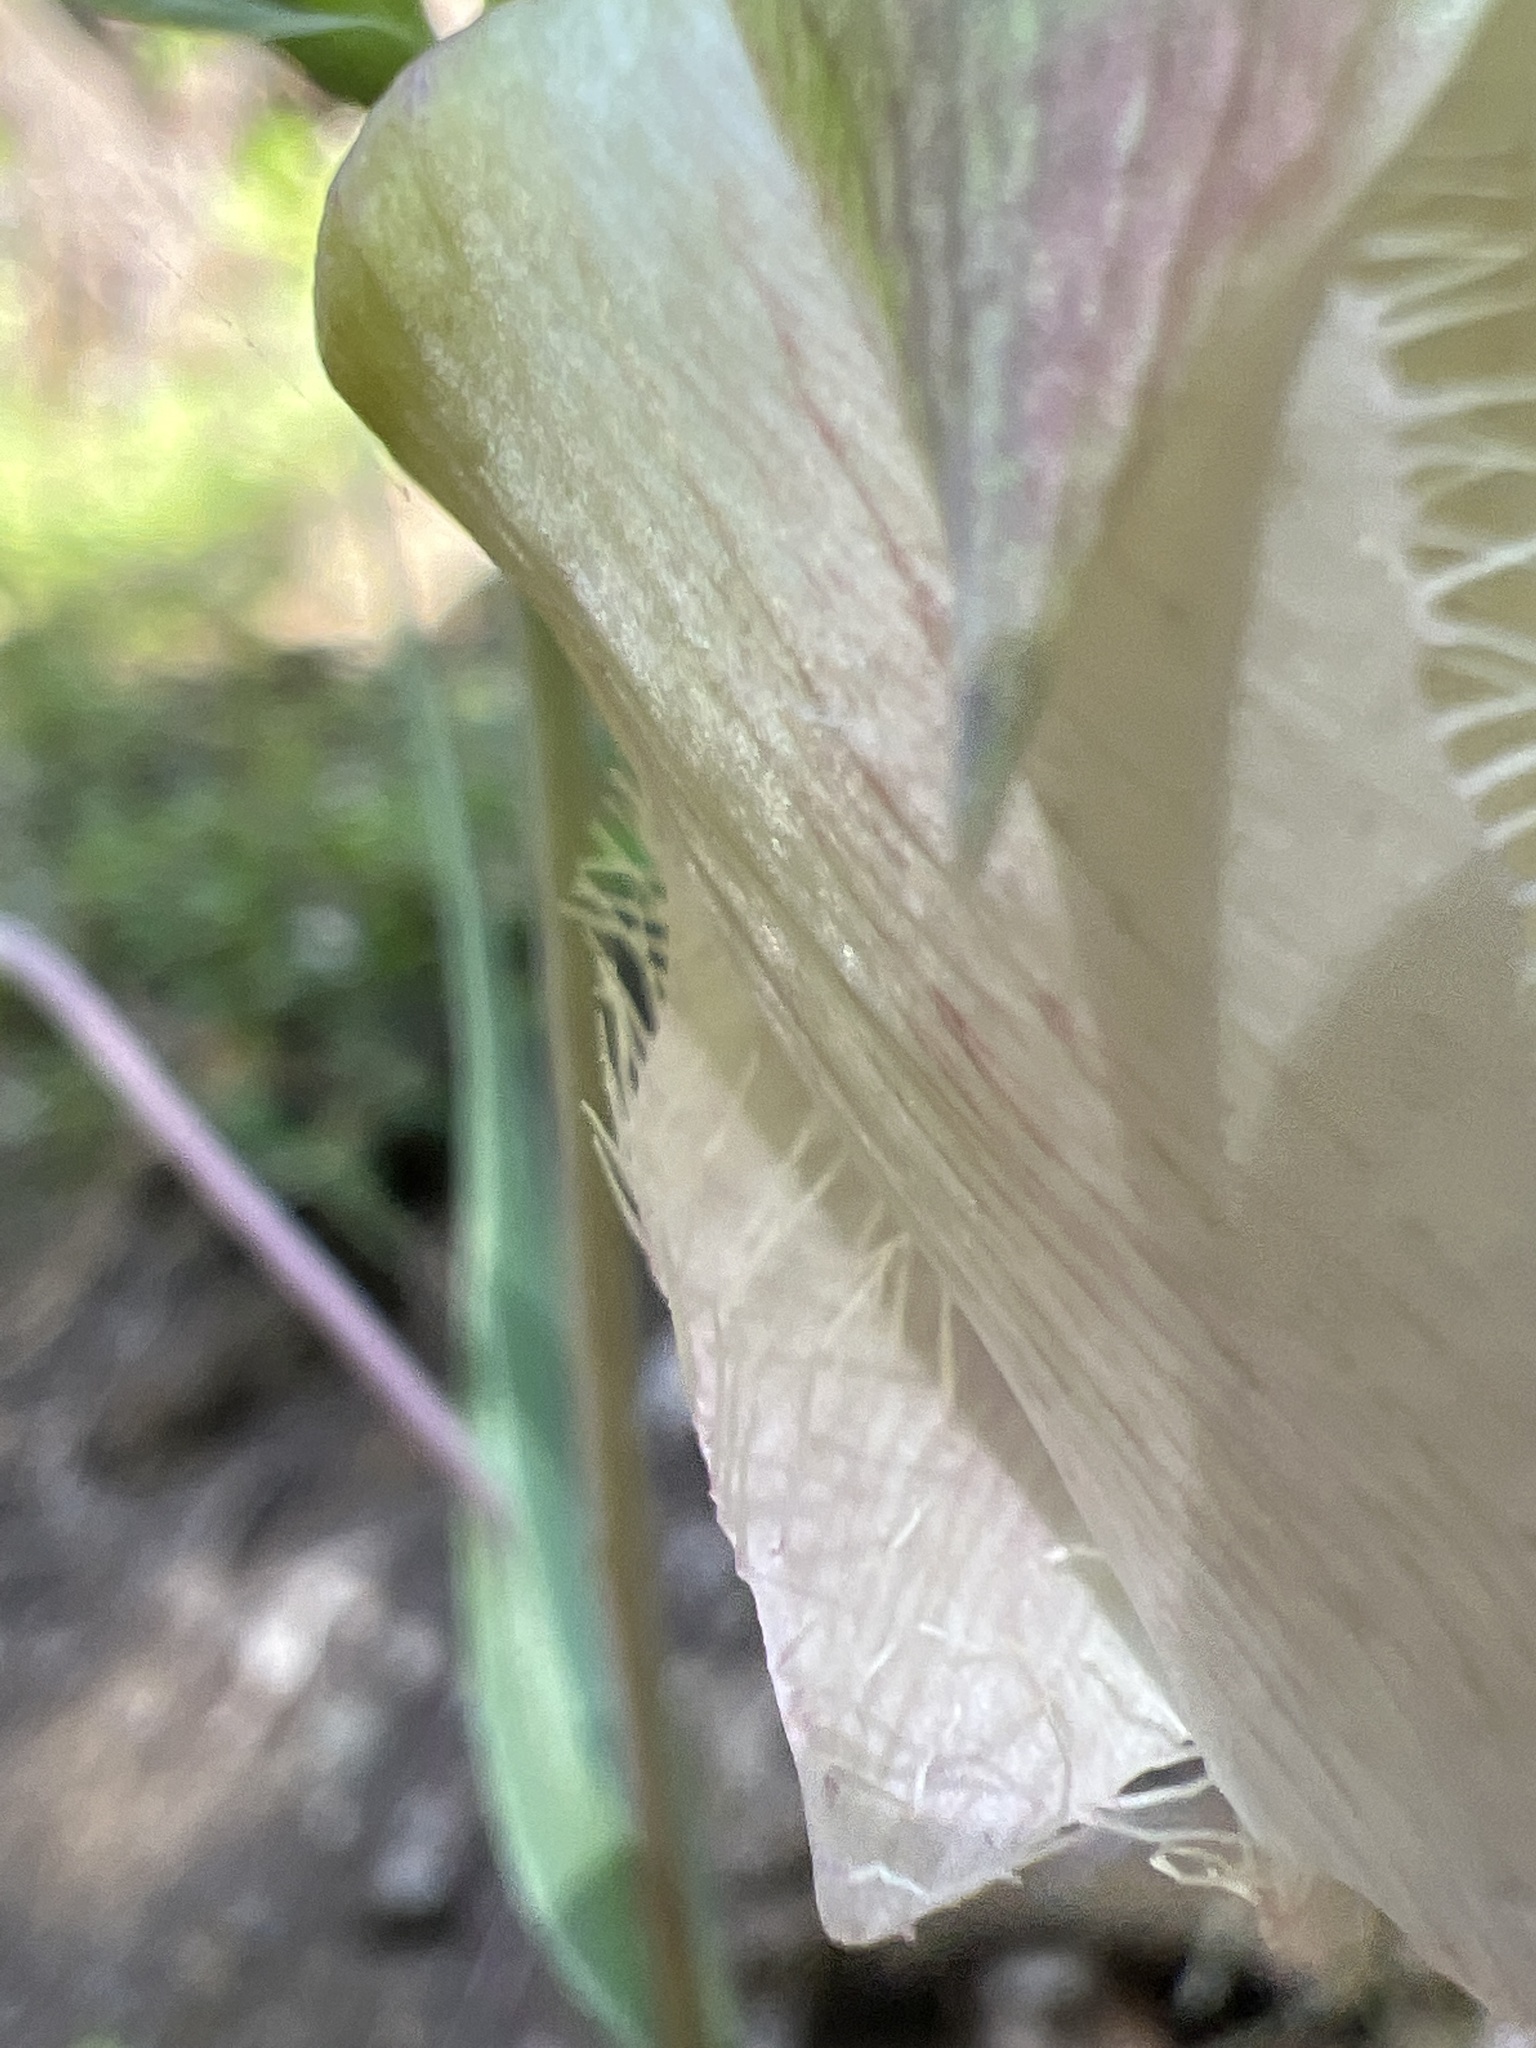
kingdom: Plantae
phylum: Tracheophyta
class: Liliopsida
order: Liliales
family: Liliaceae
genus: Calochortus
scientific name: Calochortus albus
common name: Fairy-lantern
